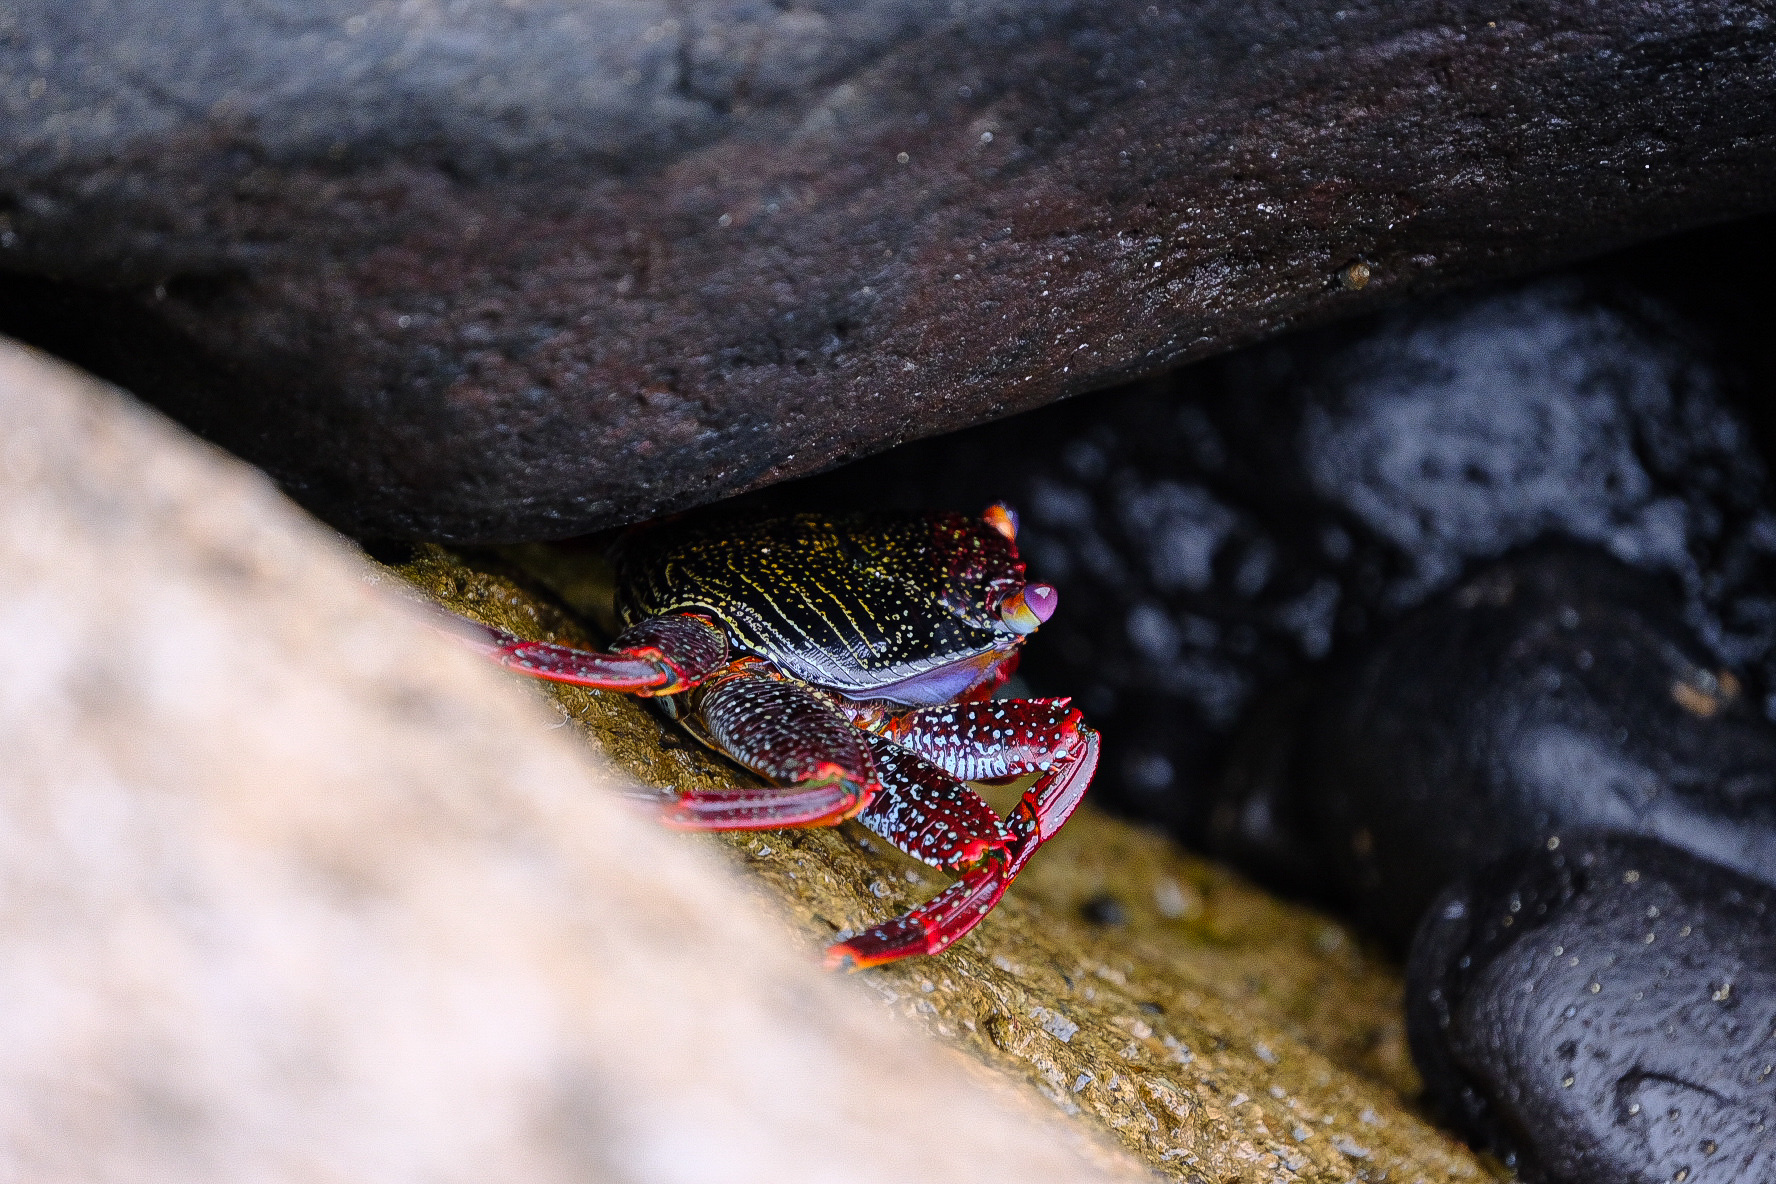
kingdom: Animalia
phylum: Arthropoda
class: Malacostraca
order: Decapoda
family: Grapsidae
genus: Grapsus
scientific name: Grapsus adscensionis
